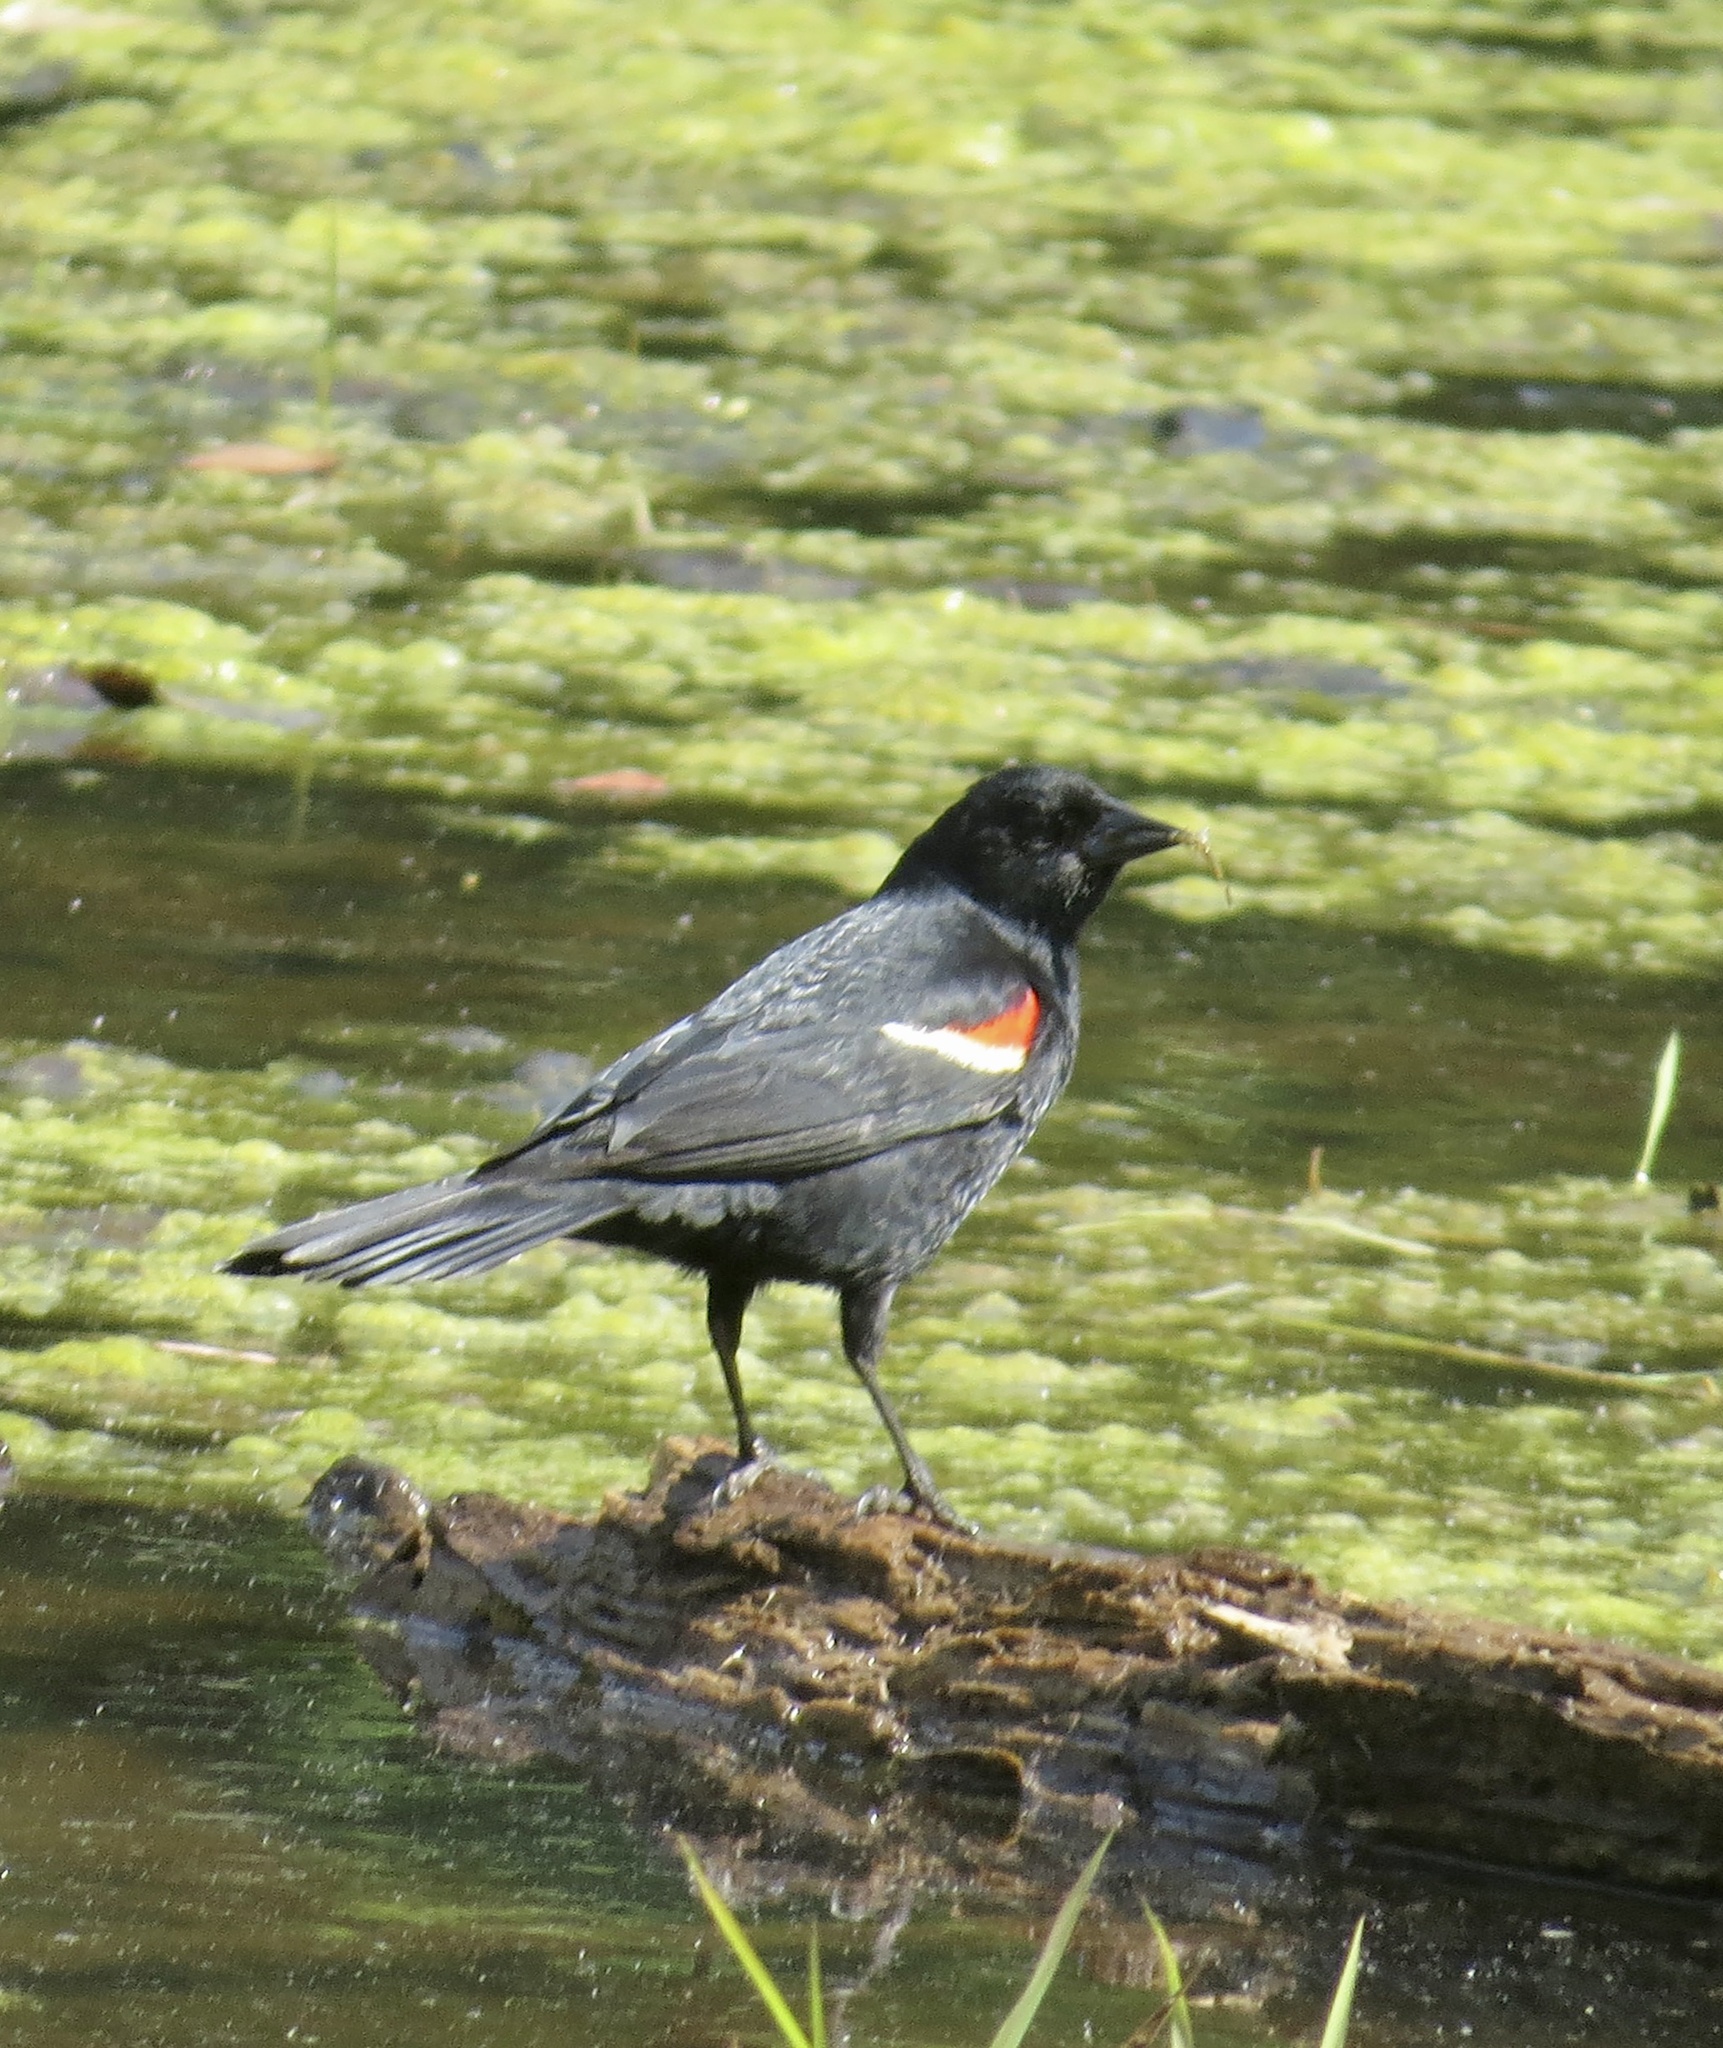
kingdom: Animalia
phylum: Chordata
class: Aves
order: Passeriformes
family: Icteridae
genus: Agelaius
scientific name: Agelaius phoeniceus
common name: Red-winged blackbird
